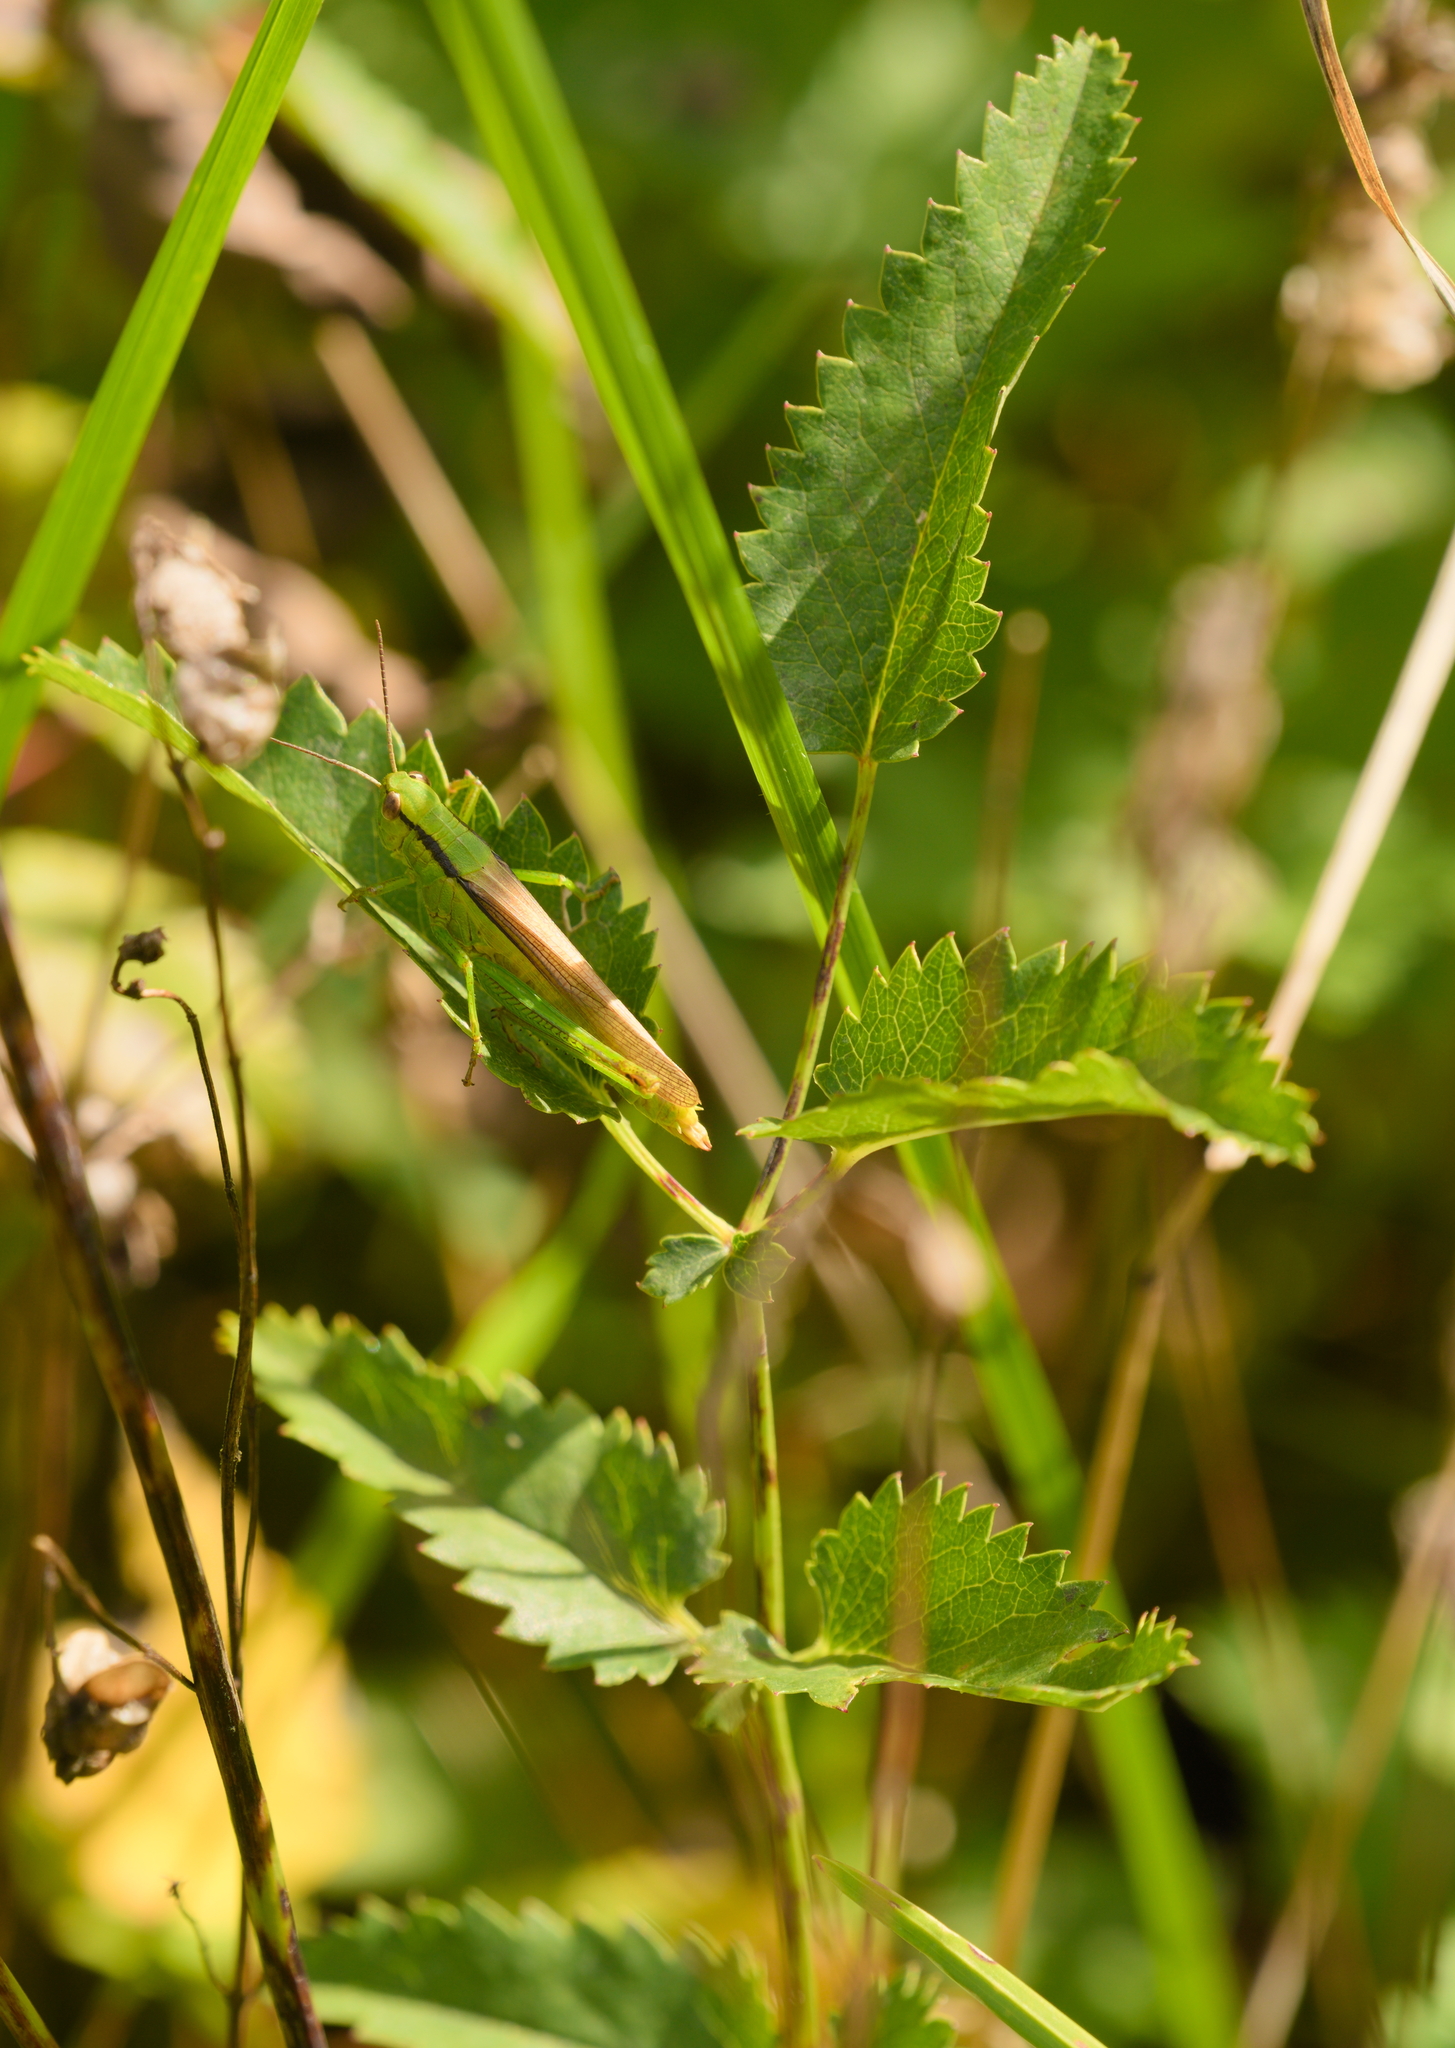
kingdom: Animalia
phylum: Arthropoda
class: Insecta
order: Orthoptera
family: Acrididae
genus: Mecostethus
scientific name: Mecostethus parapleurus
